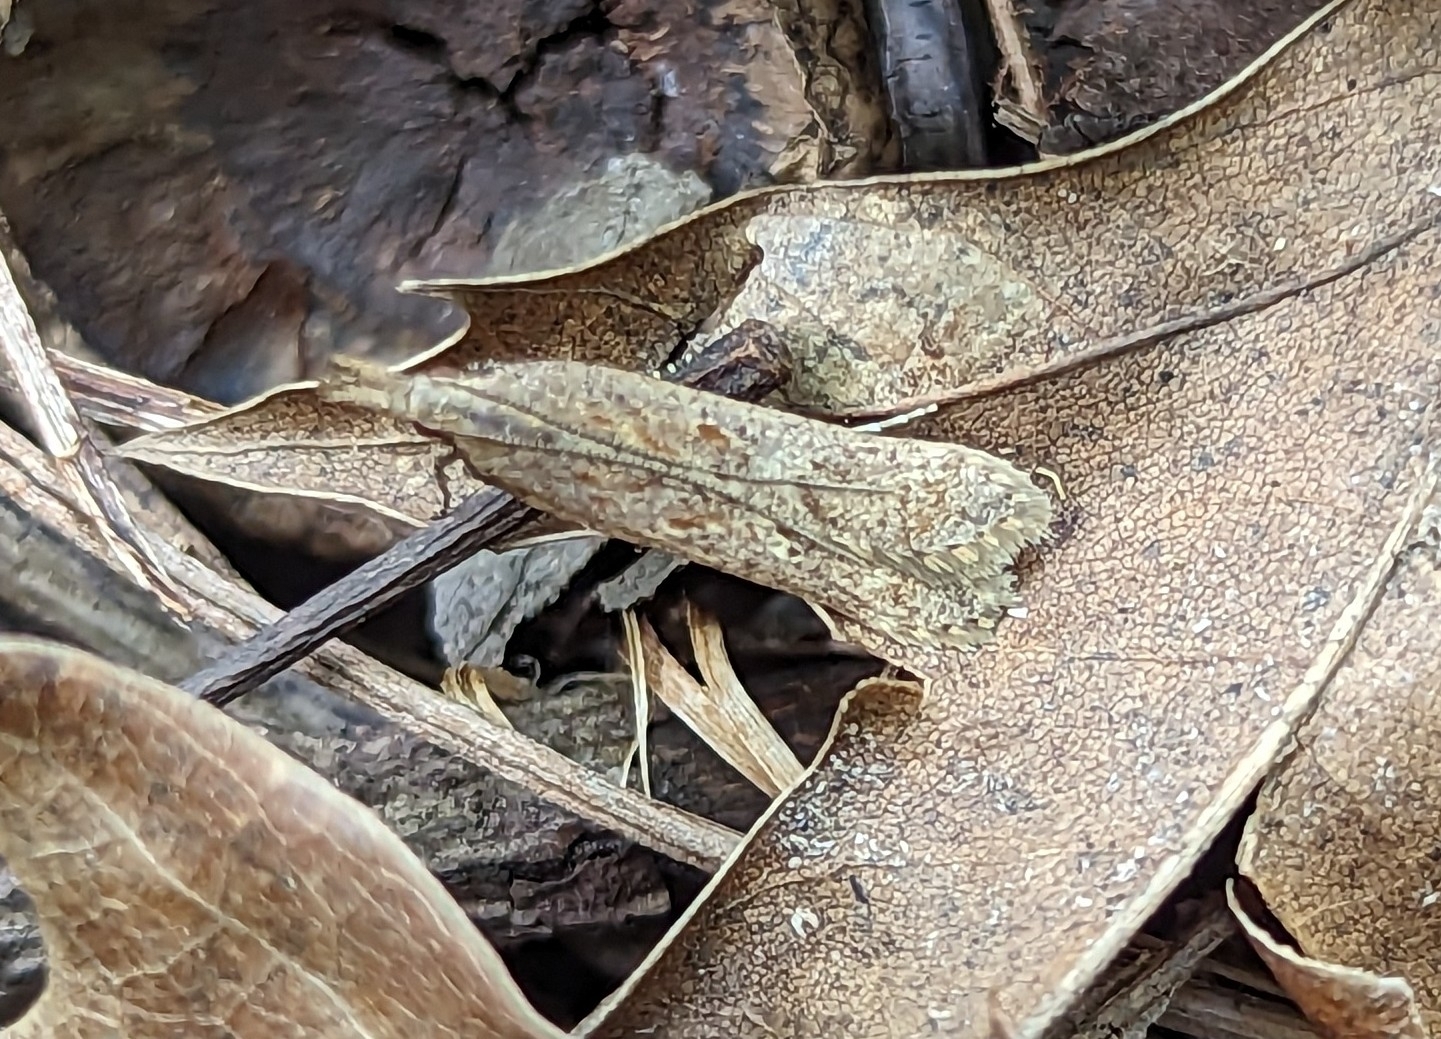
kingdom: Animalia
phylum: Arthropoda
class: Insecta
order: Lepidoptera
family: Gelechiidae
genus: Dichomeris
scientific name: Dichomeris ligulella
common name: Moth
